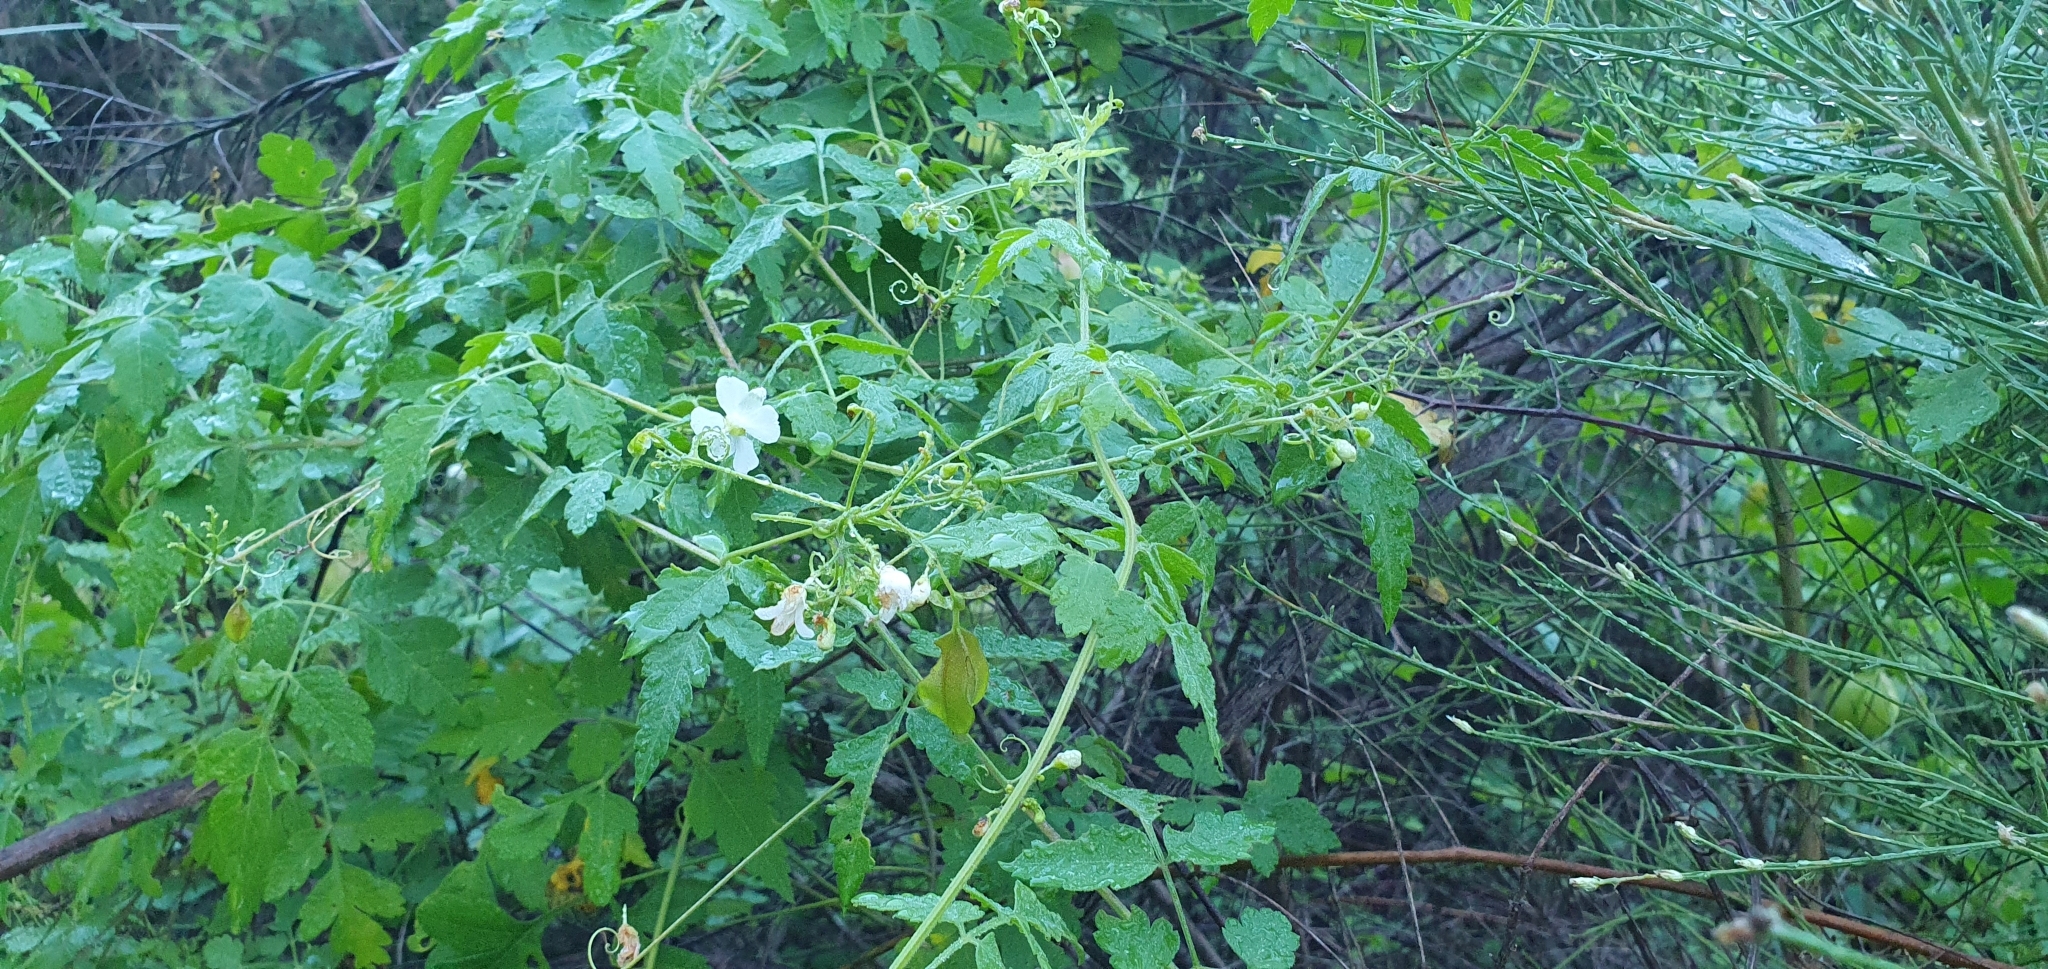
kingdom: Plantae
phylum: Tracheophyta
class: Magnoliopsida
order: Sapindales
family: Sapindaceae
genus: Cardiospermum
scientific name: Cardiospermum corindum
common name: Faux persil
